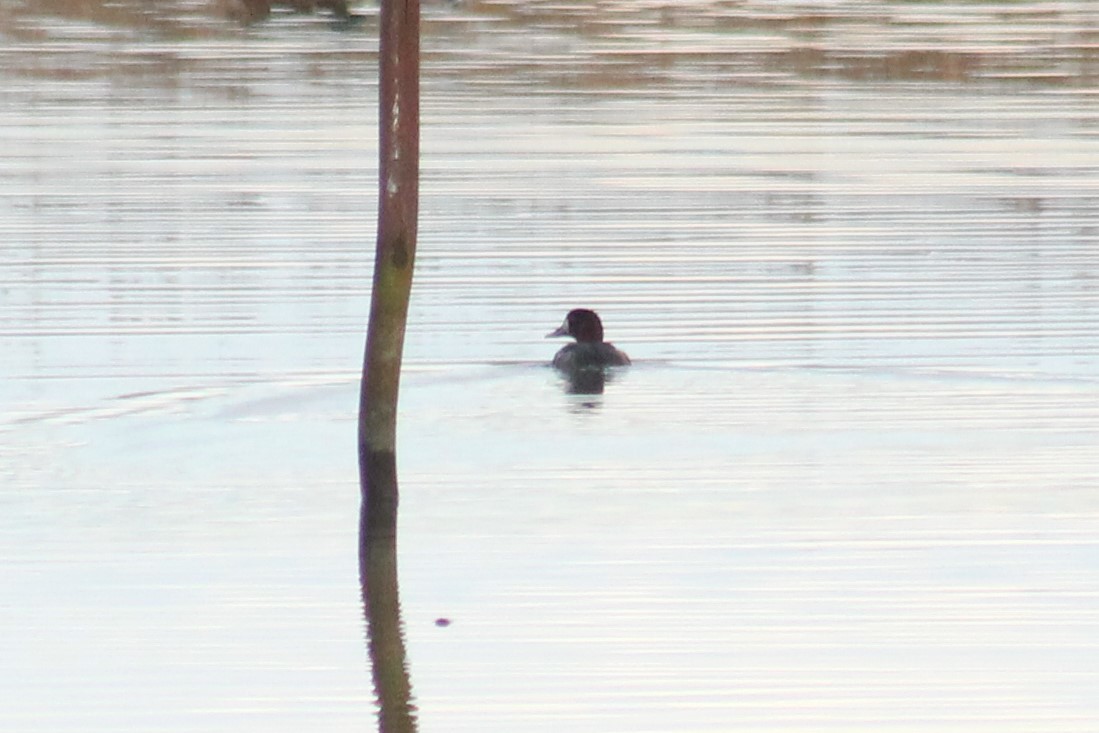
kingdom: Animalia
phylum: Chordata
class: Aves
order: Anseriformes
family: Anatidae
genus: Aythya
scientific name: Aythya fuligula
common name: Tufted duck
